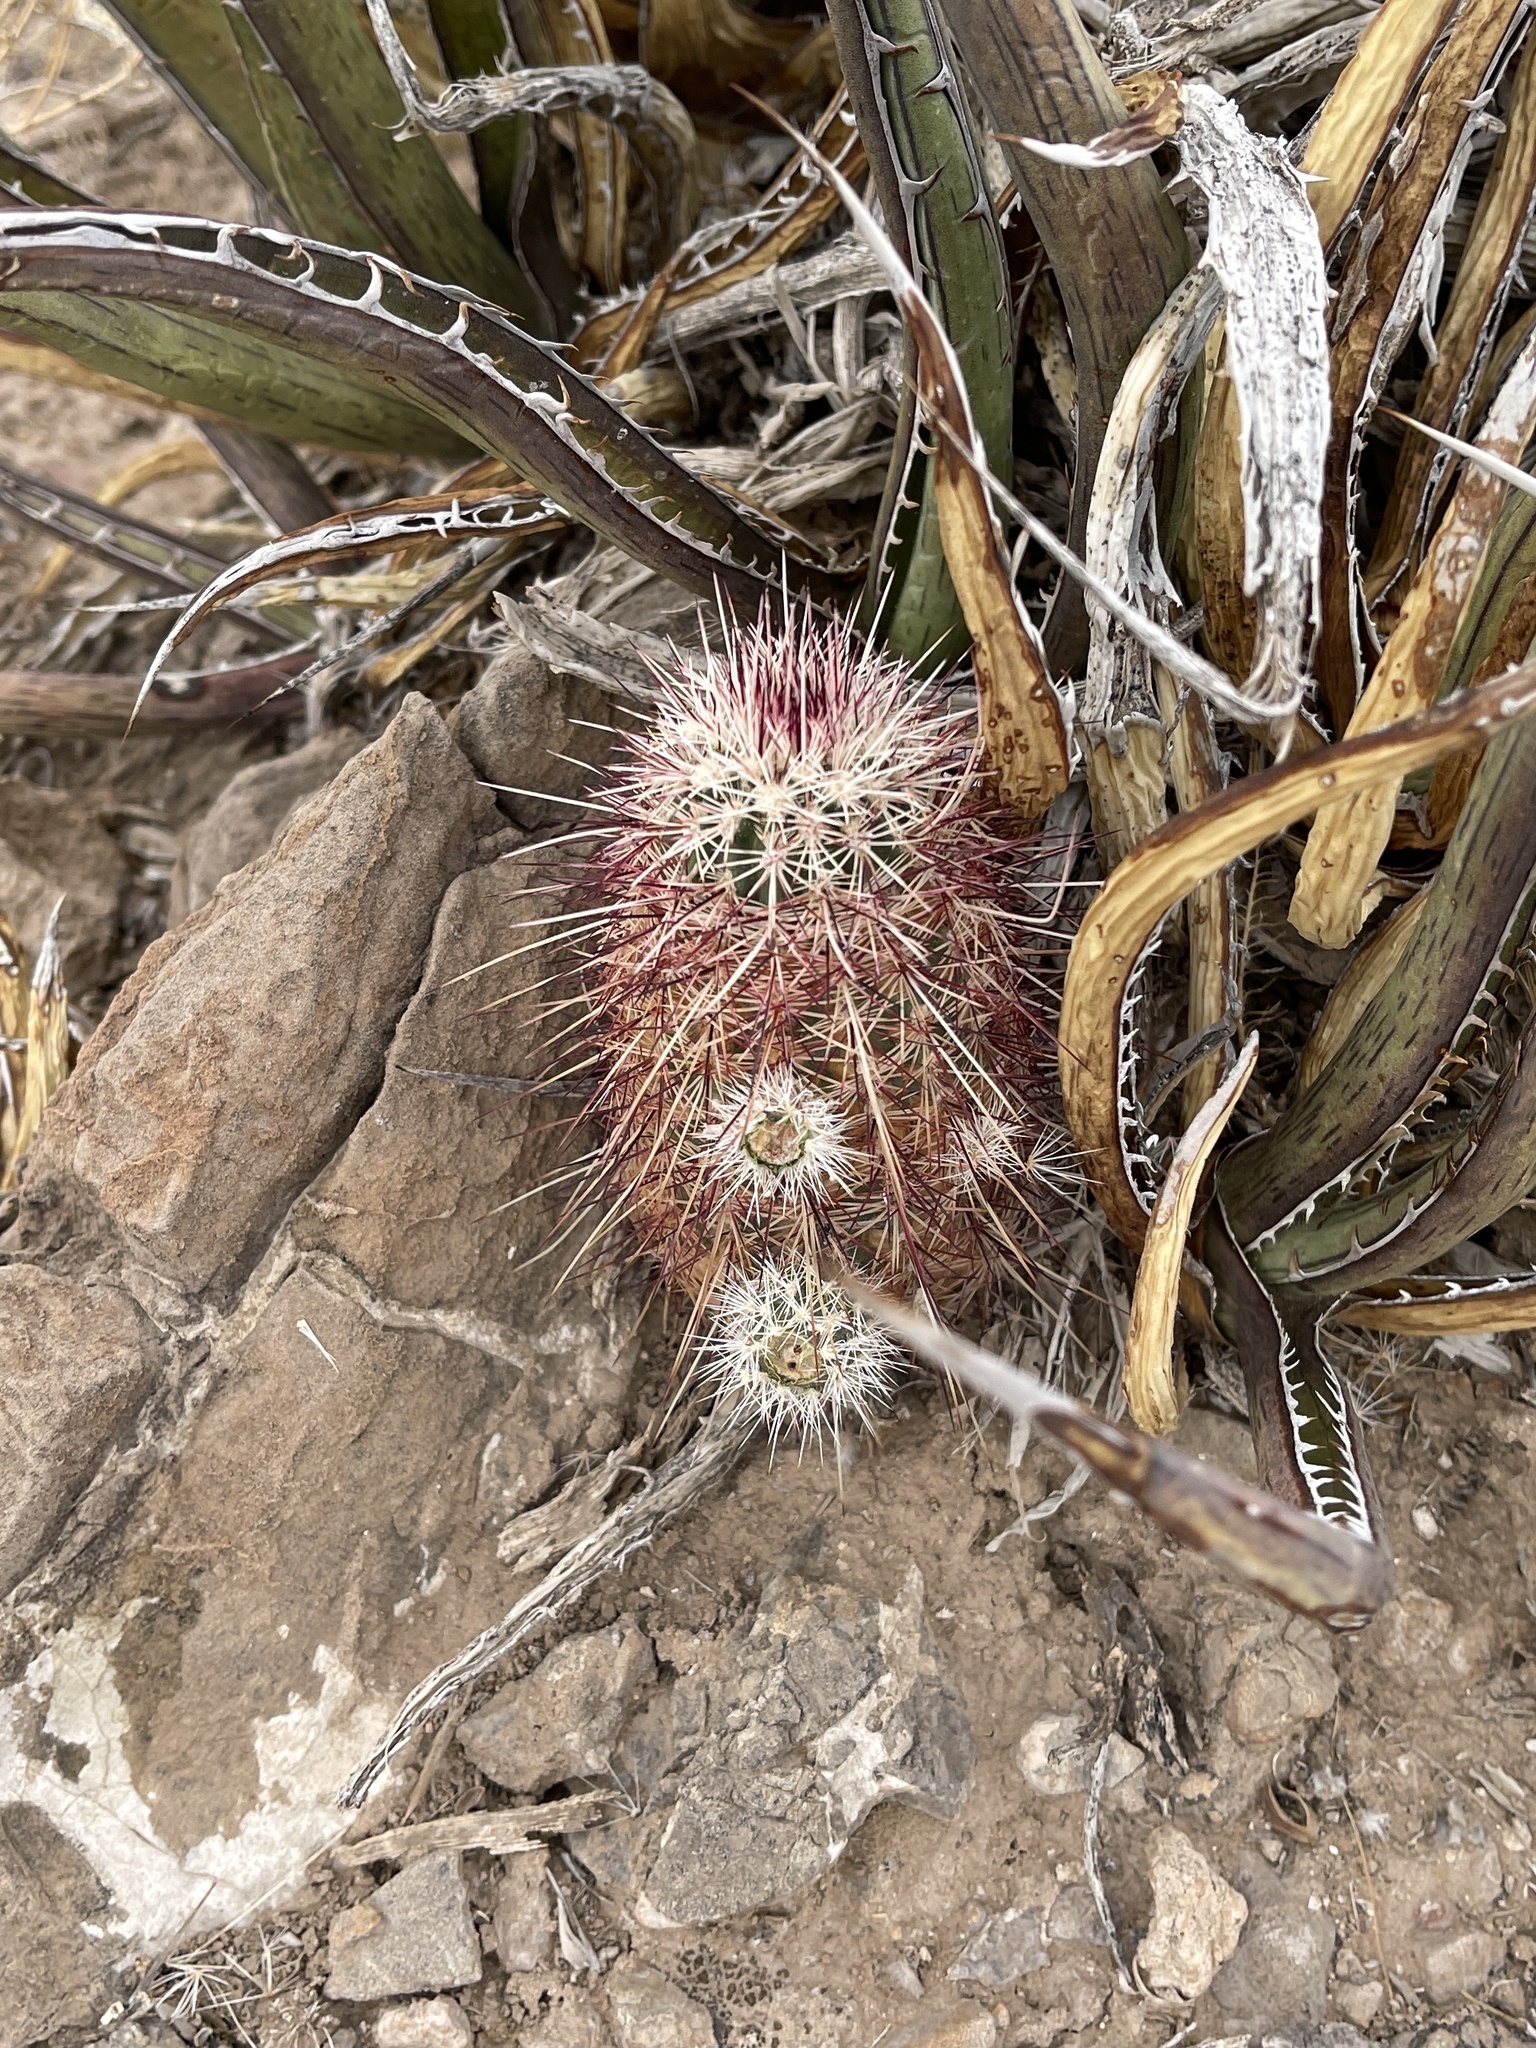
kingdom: Plantae
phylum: Tracheophyta
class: Magnoliopsida
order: Caryophyllales
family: Cactaceae
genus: Echinocereus
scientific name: Echinocereus viridiflorus
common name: Nylon hedgehog cactus
